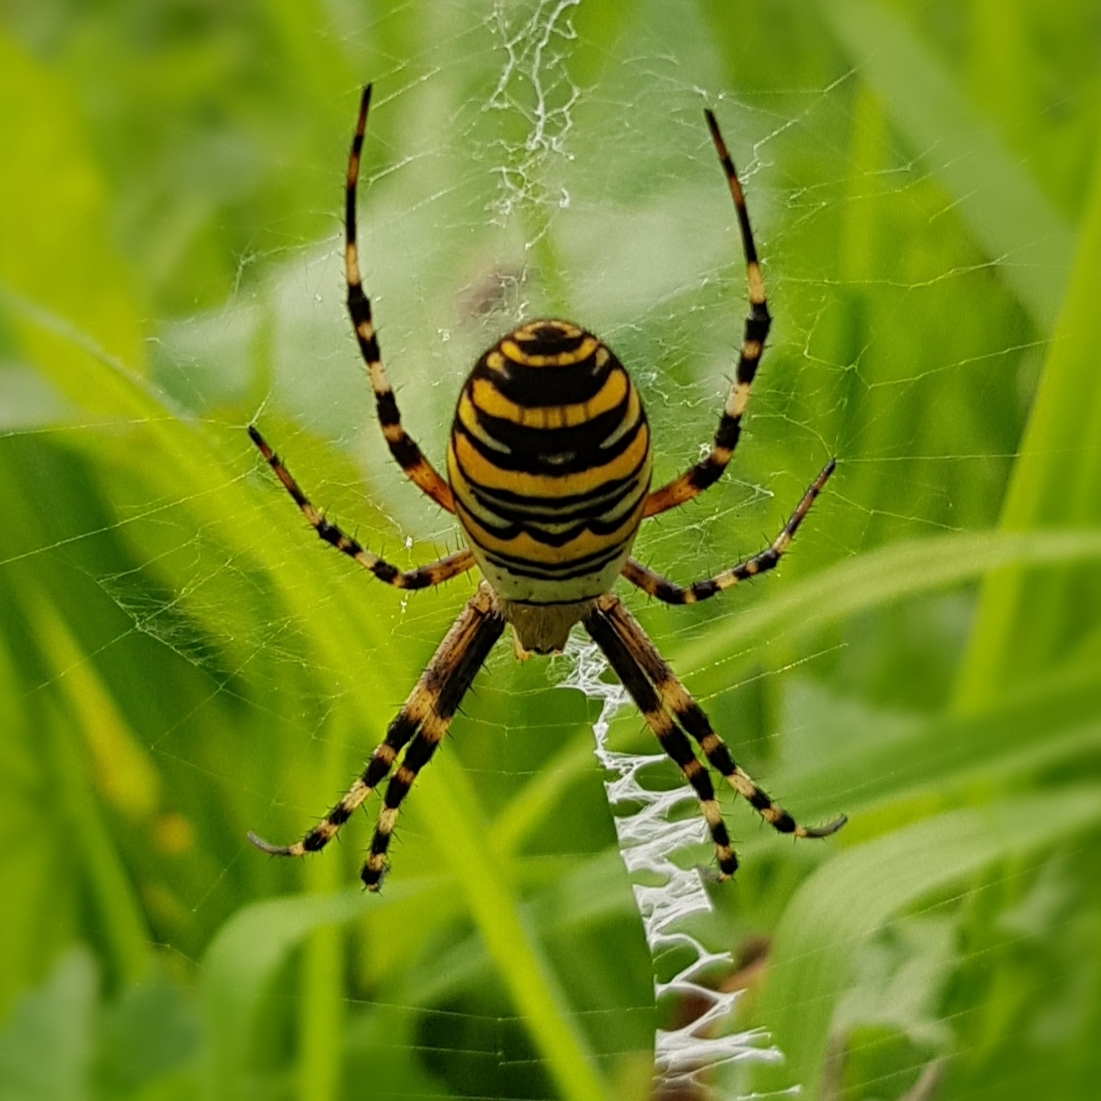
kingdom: Animalia
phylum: Arthropoda
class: Arachnida
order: Araneae
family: Araneidae
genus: Argiope
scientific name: Argiope bruennichi
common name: Wasp spider
